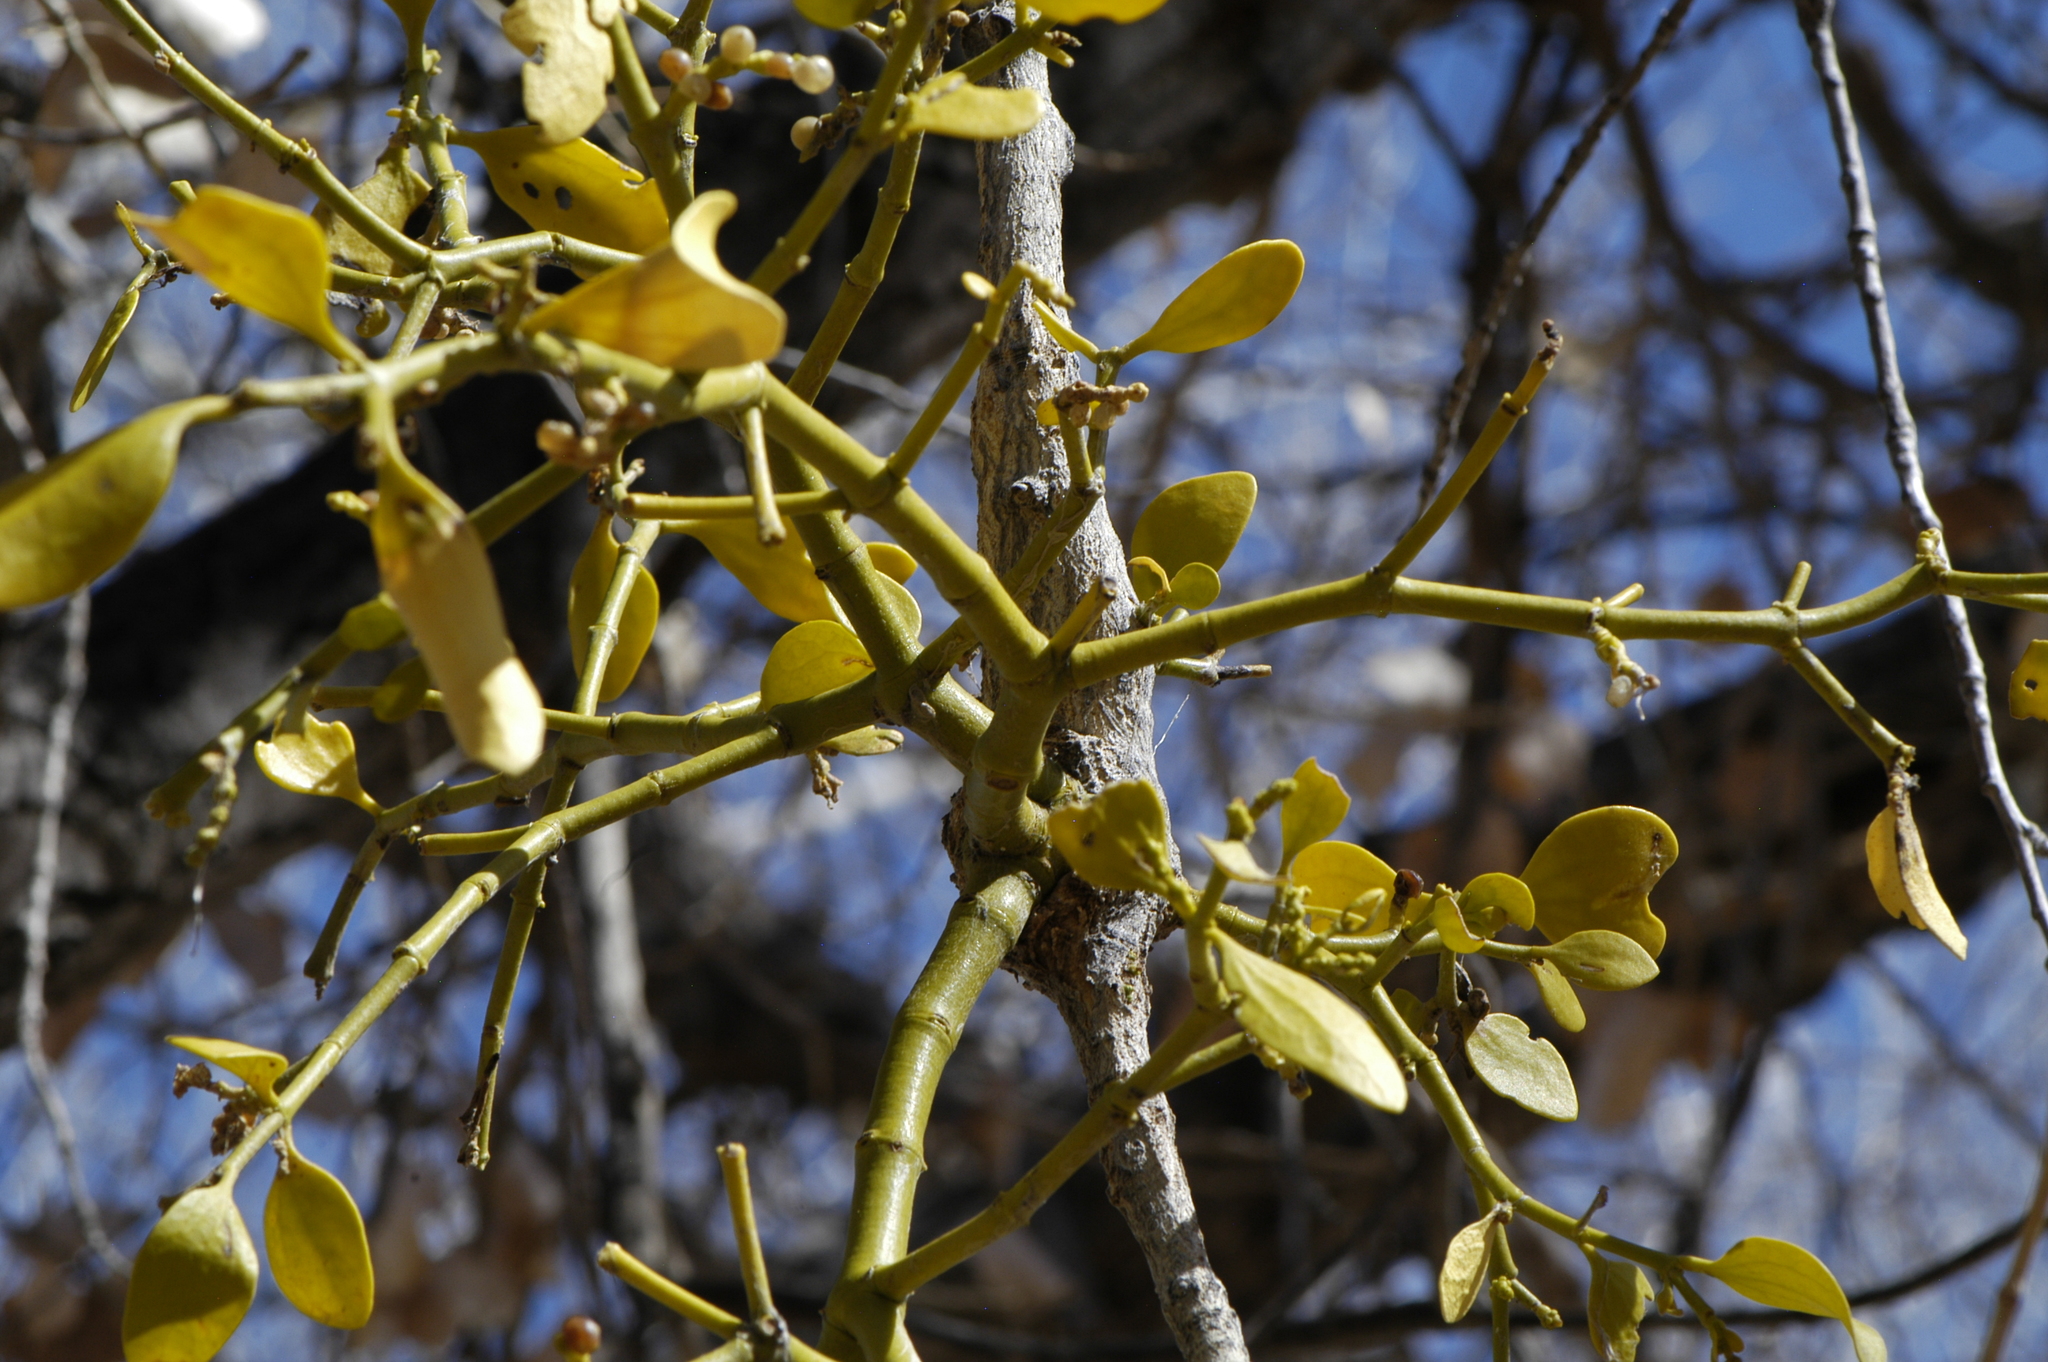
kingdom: Plantae
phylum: Tracheophyta
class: Magnoliopsida
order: Santalales
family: Viscaceae
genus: Phoradendron
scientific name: Phoradendron
